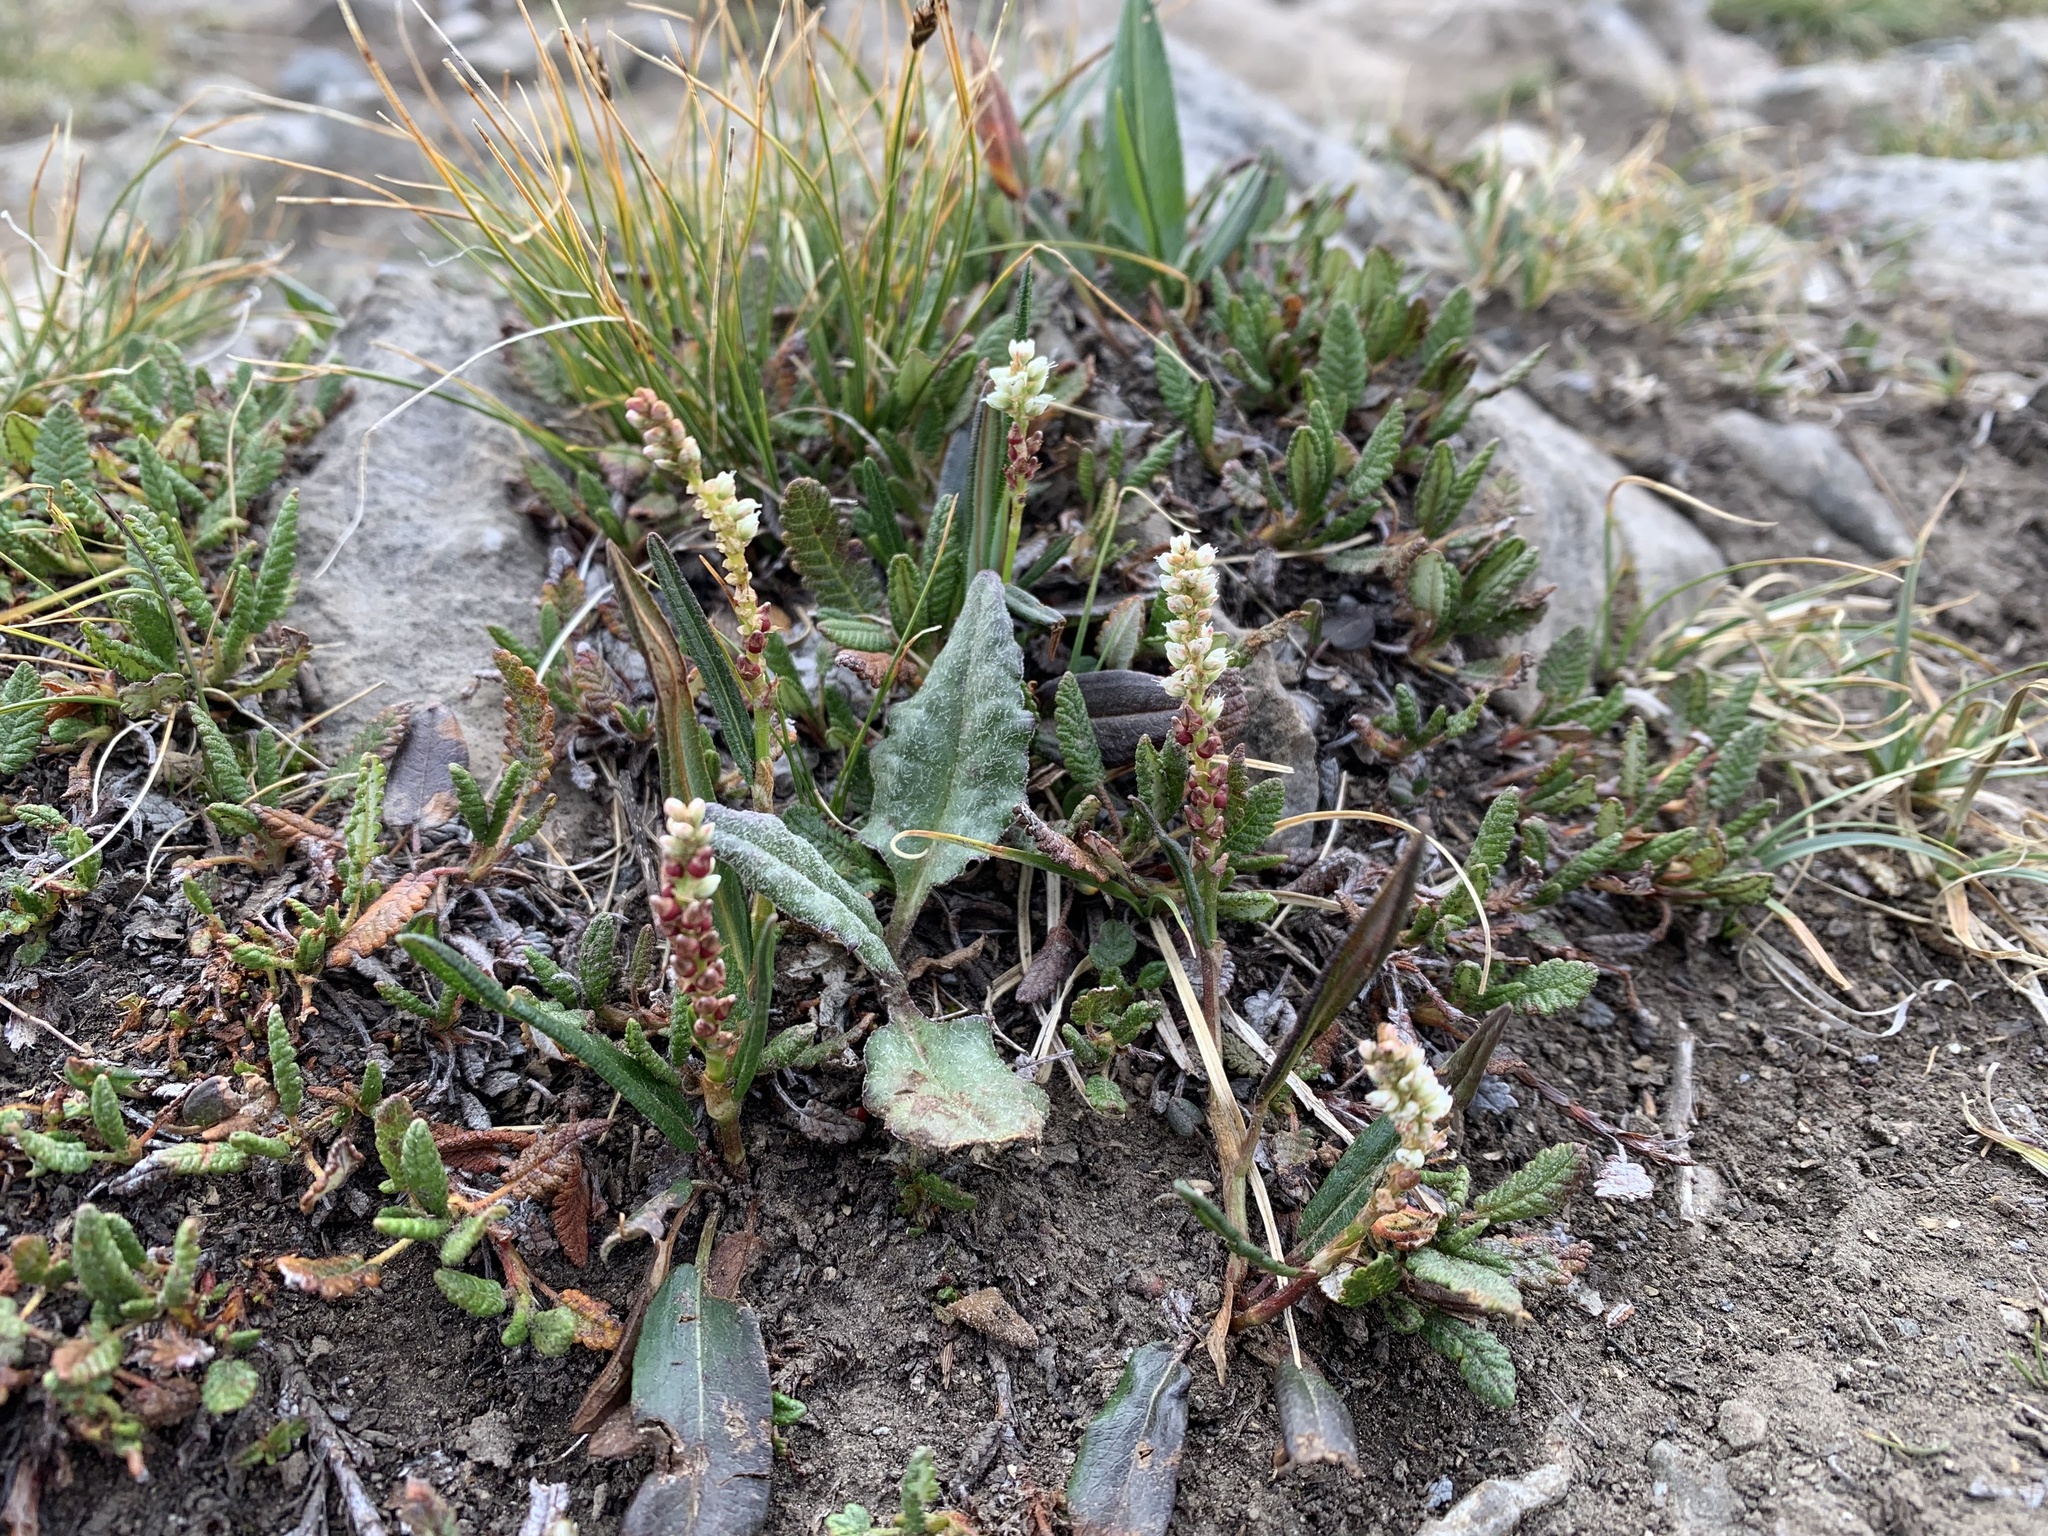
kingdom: Plantae
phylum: Tracheophyta
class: Magnoliopsida
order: Caryophyllales
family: Polygonaceae
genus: Bistorta
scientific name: Bistorta vivipara
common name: Alpine bistort
